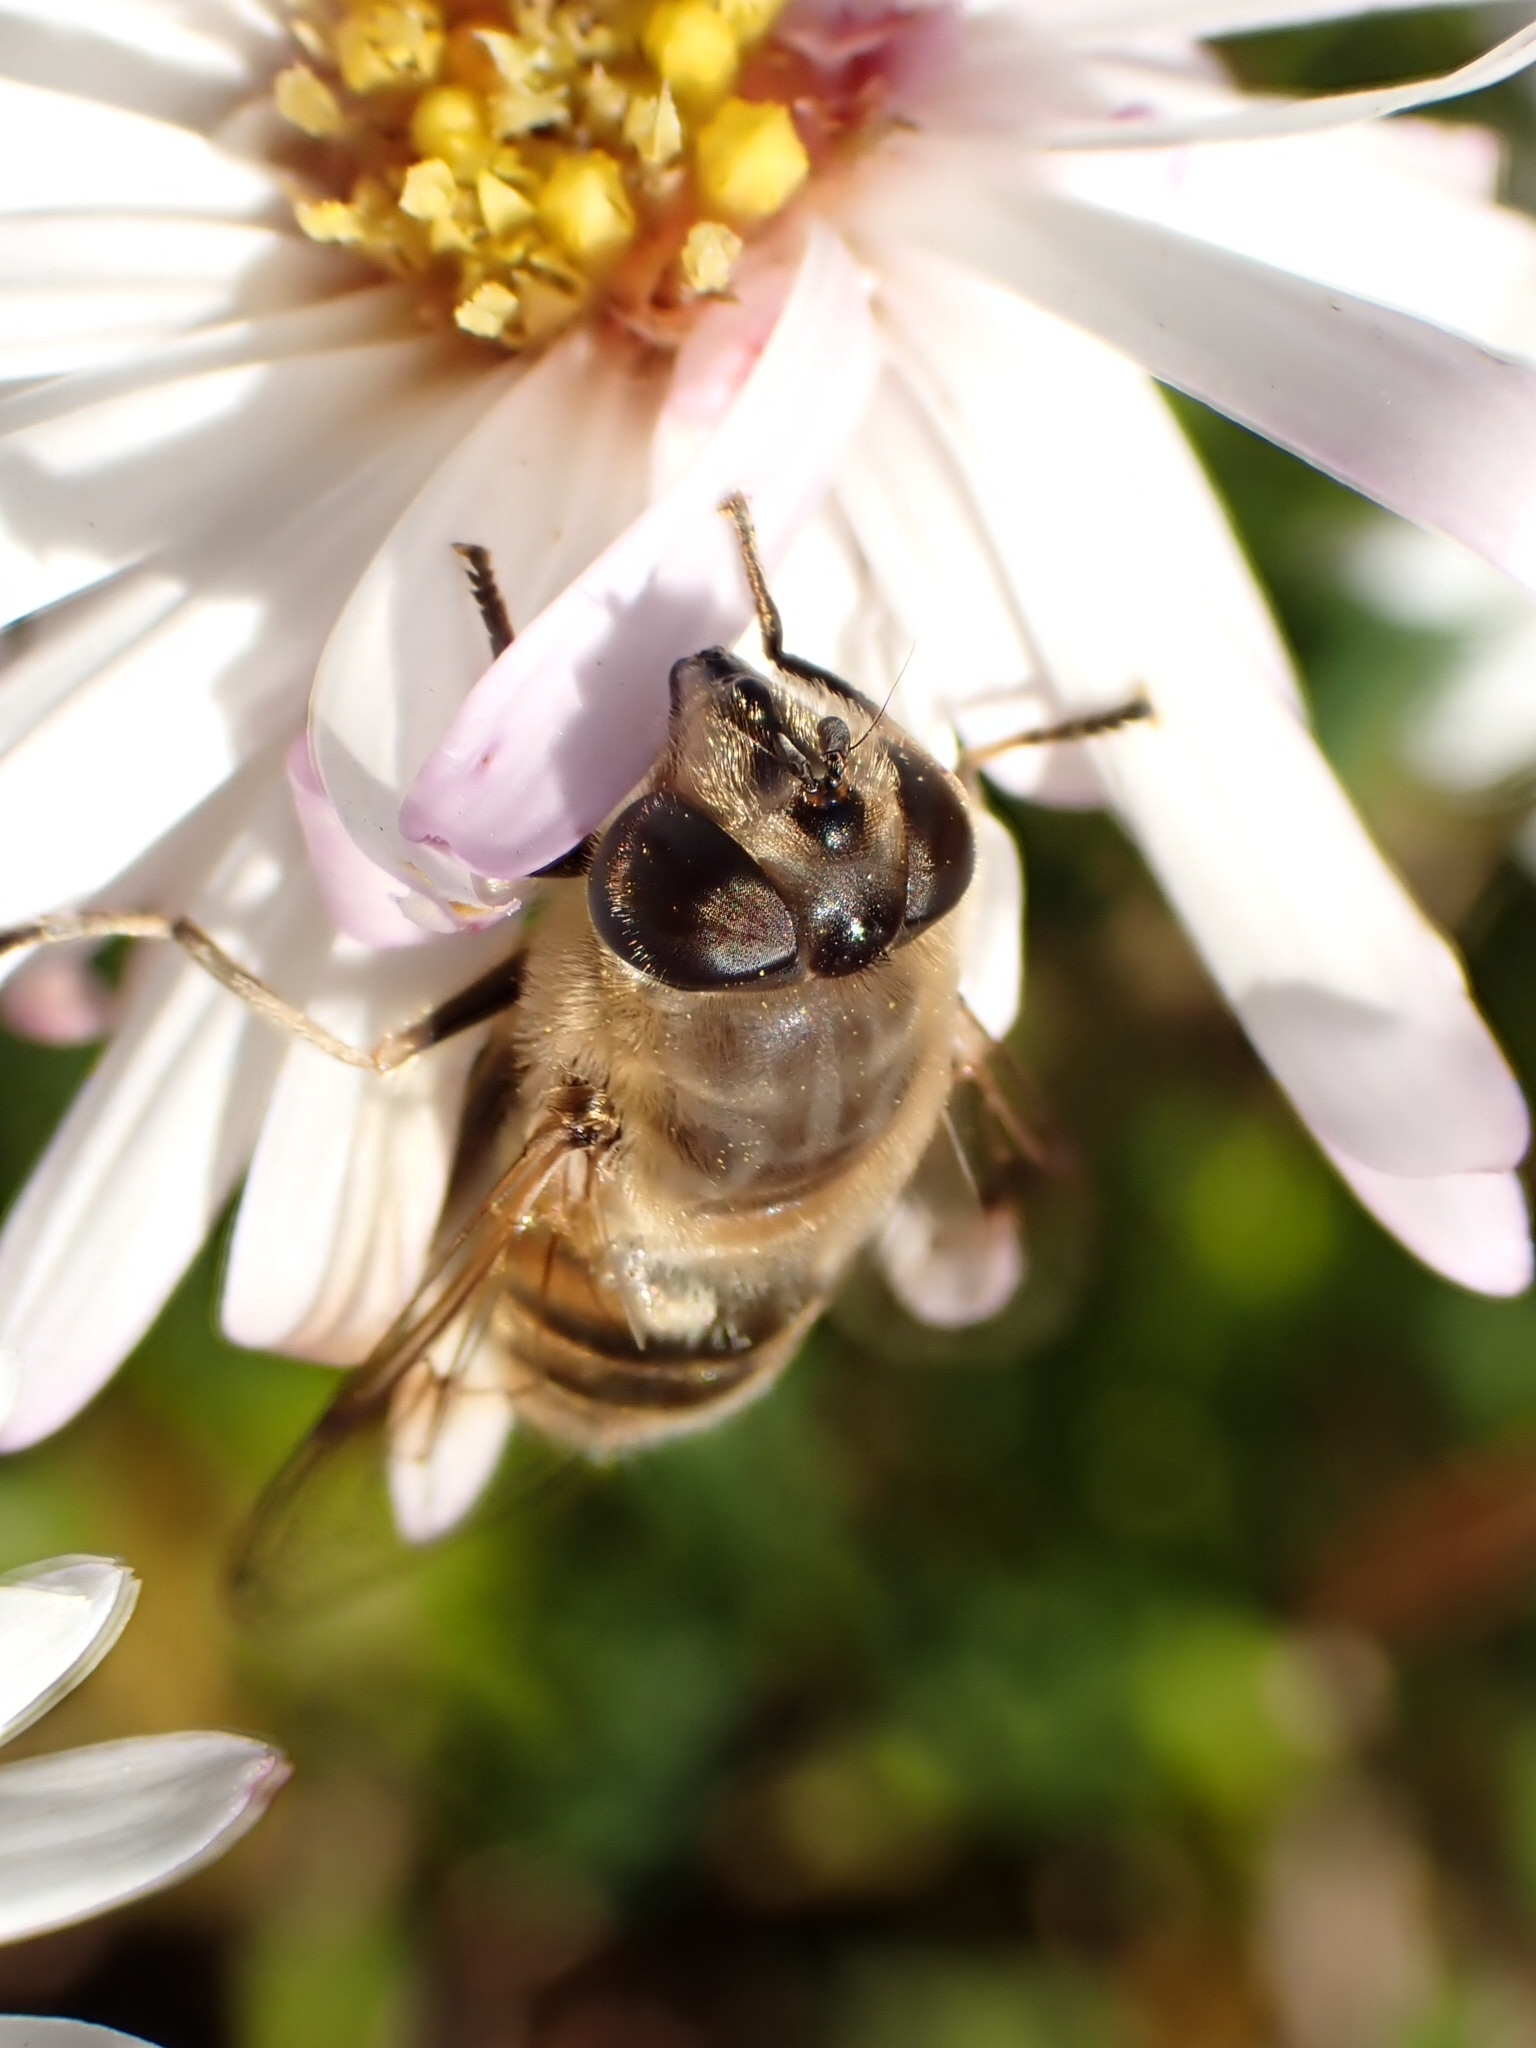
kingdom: Animalia
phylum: Arthropoda
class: Insecta
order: Diptera
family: Syrphidae
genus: Eristalis
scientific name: Eristalis tenax
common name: Drone fly
